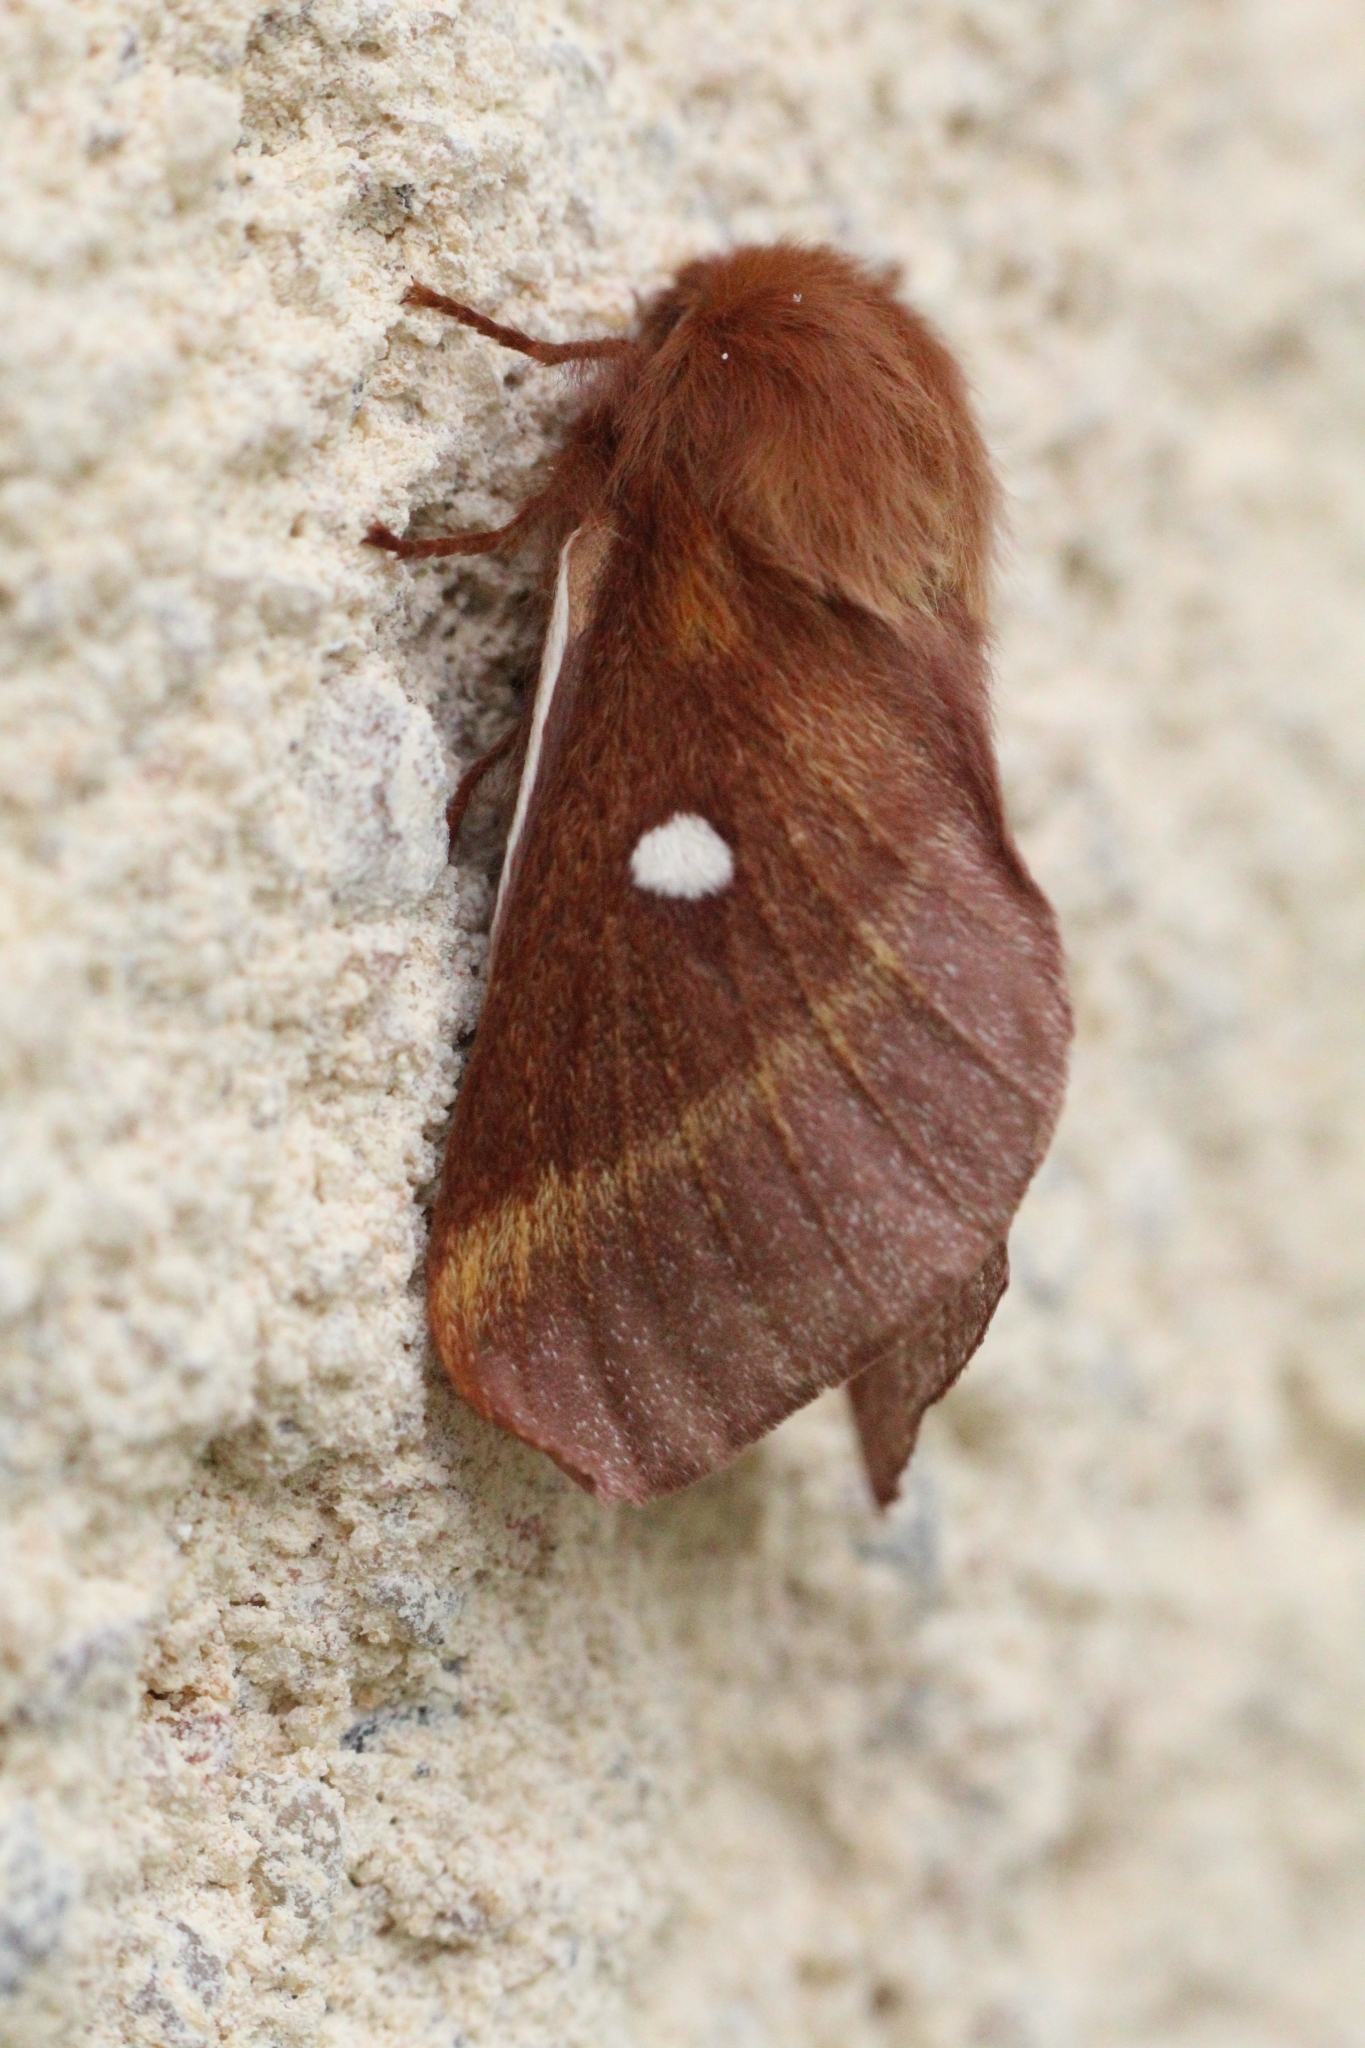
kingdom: Animalia
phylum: Arthropoda
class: Insecta
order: Lepidoptera
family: Lasiocampidae
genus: Eriogaster
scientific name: Eriogaster catax
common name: Eastern eggar
